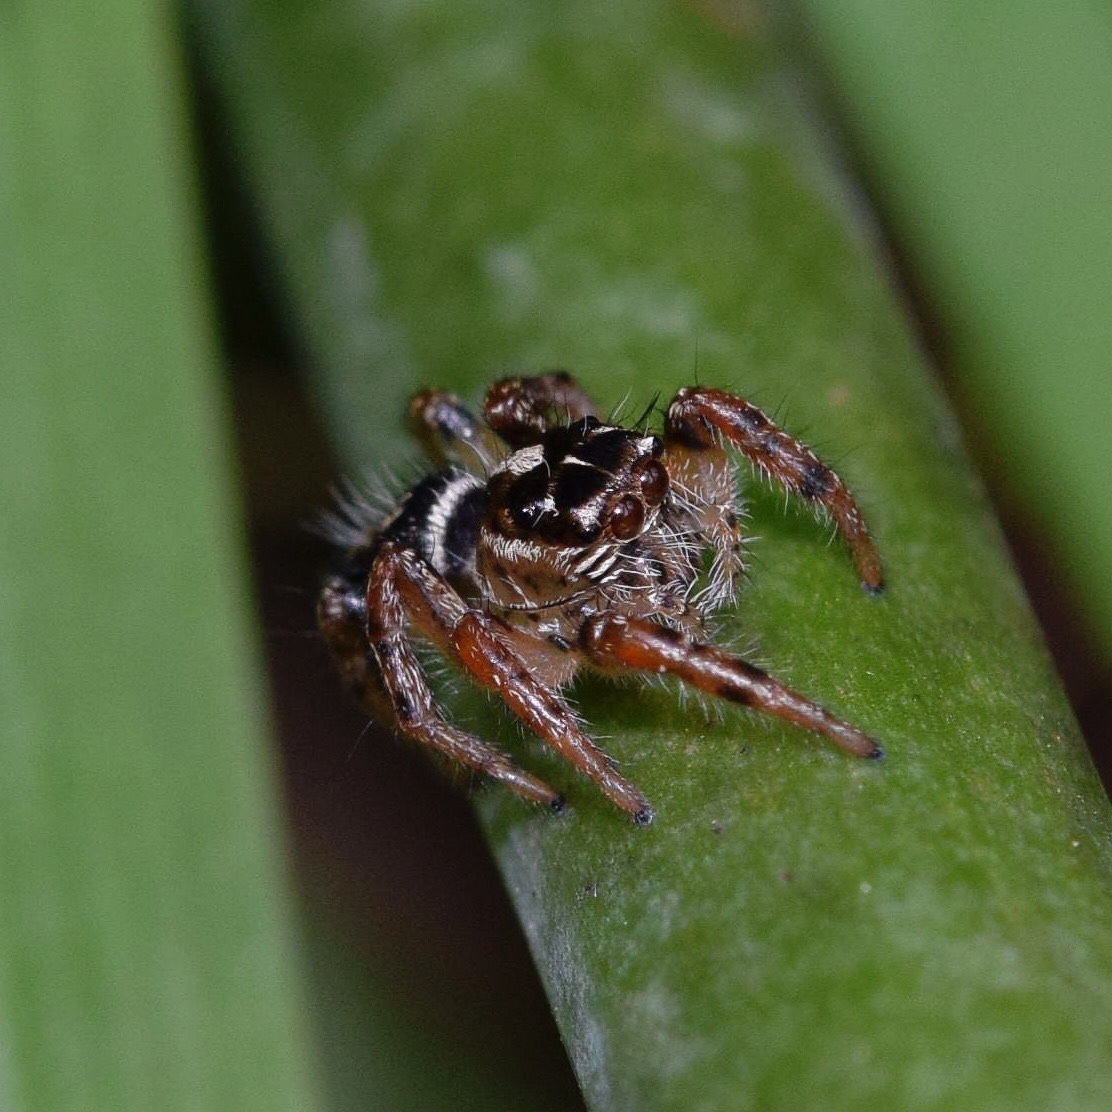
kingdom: Animalia
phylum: Arthropoda
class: Arachnida
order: Araneae
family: Salticidae
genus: Hyllus
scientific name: Hyllus argyrotoxus
